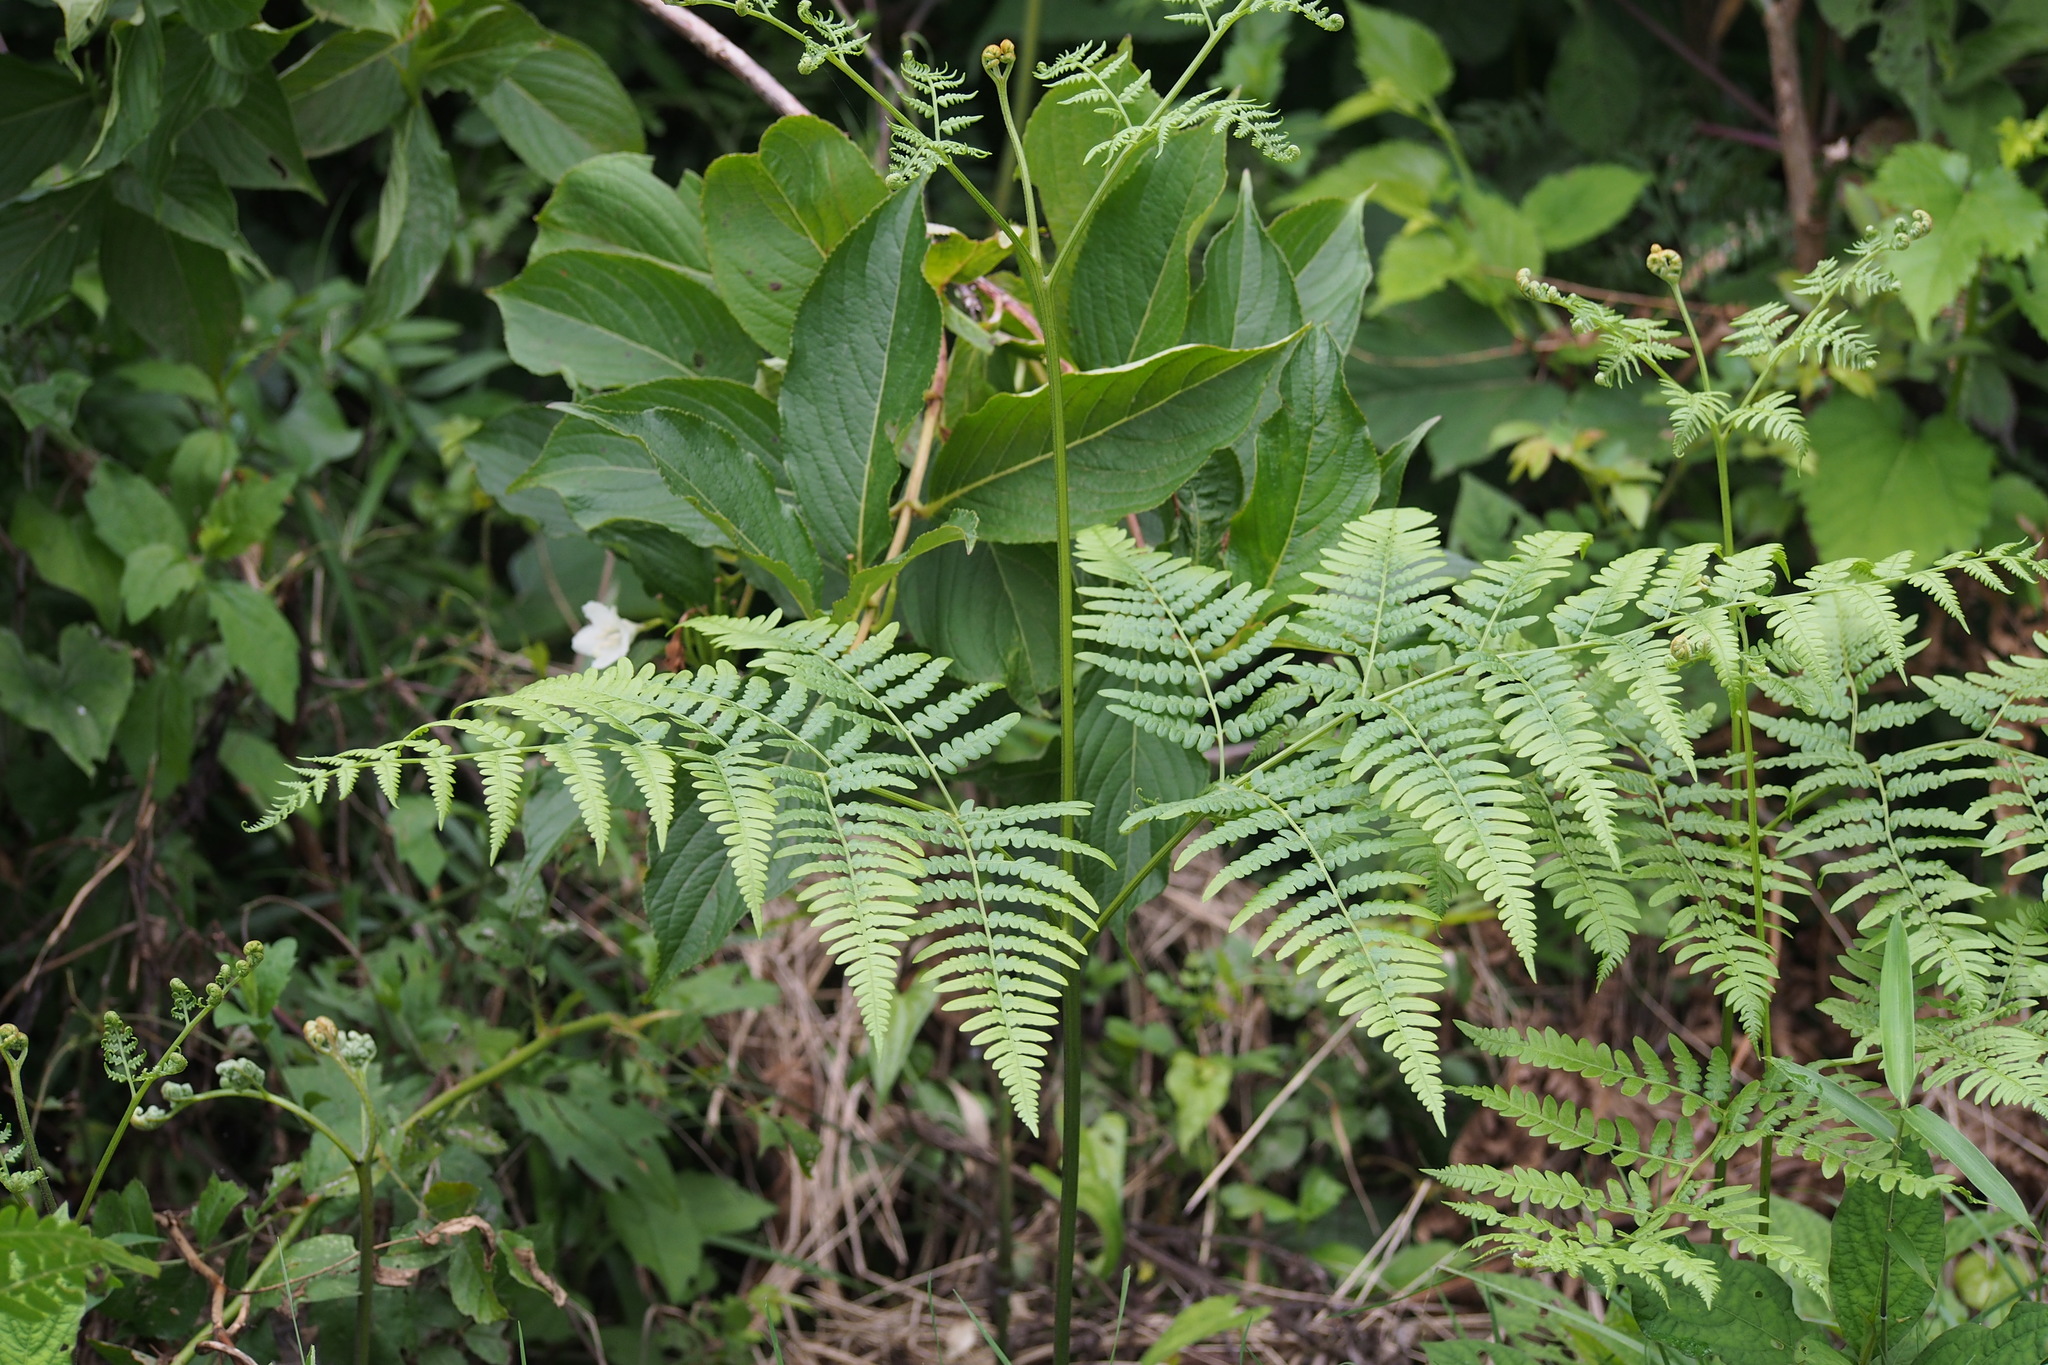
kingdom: Plantae
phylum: Tracheophyta
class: Polypodiopsida
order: Polypodiales
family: Dennstaedtiaceae
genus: Pteridium
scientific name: Pteridium aquilinum
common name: Bracken
